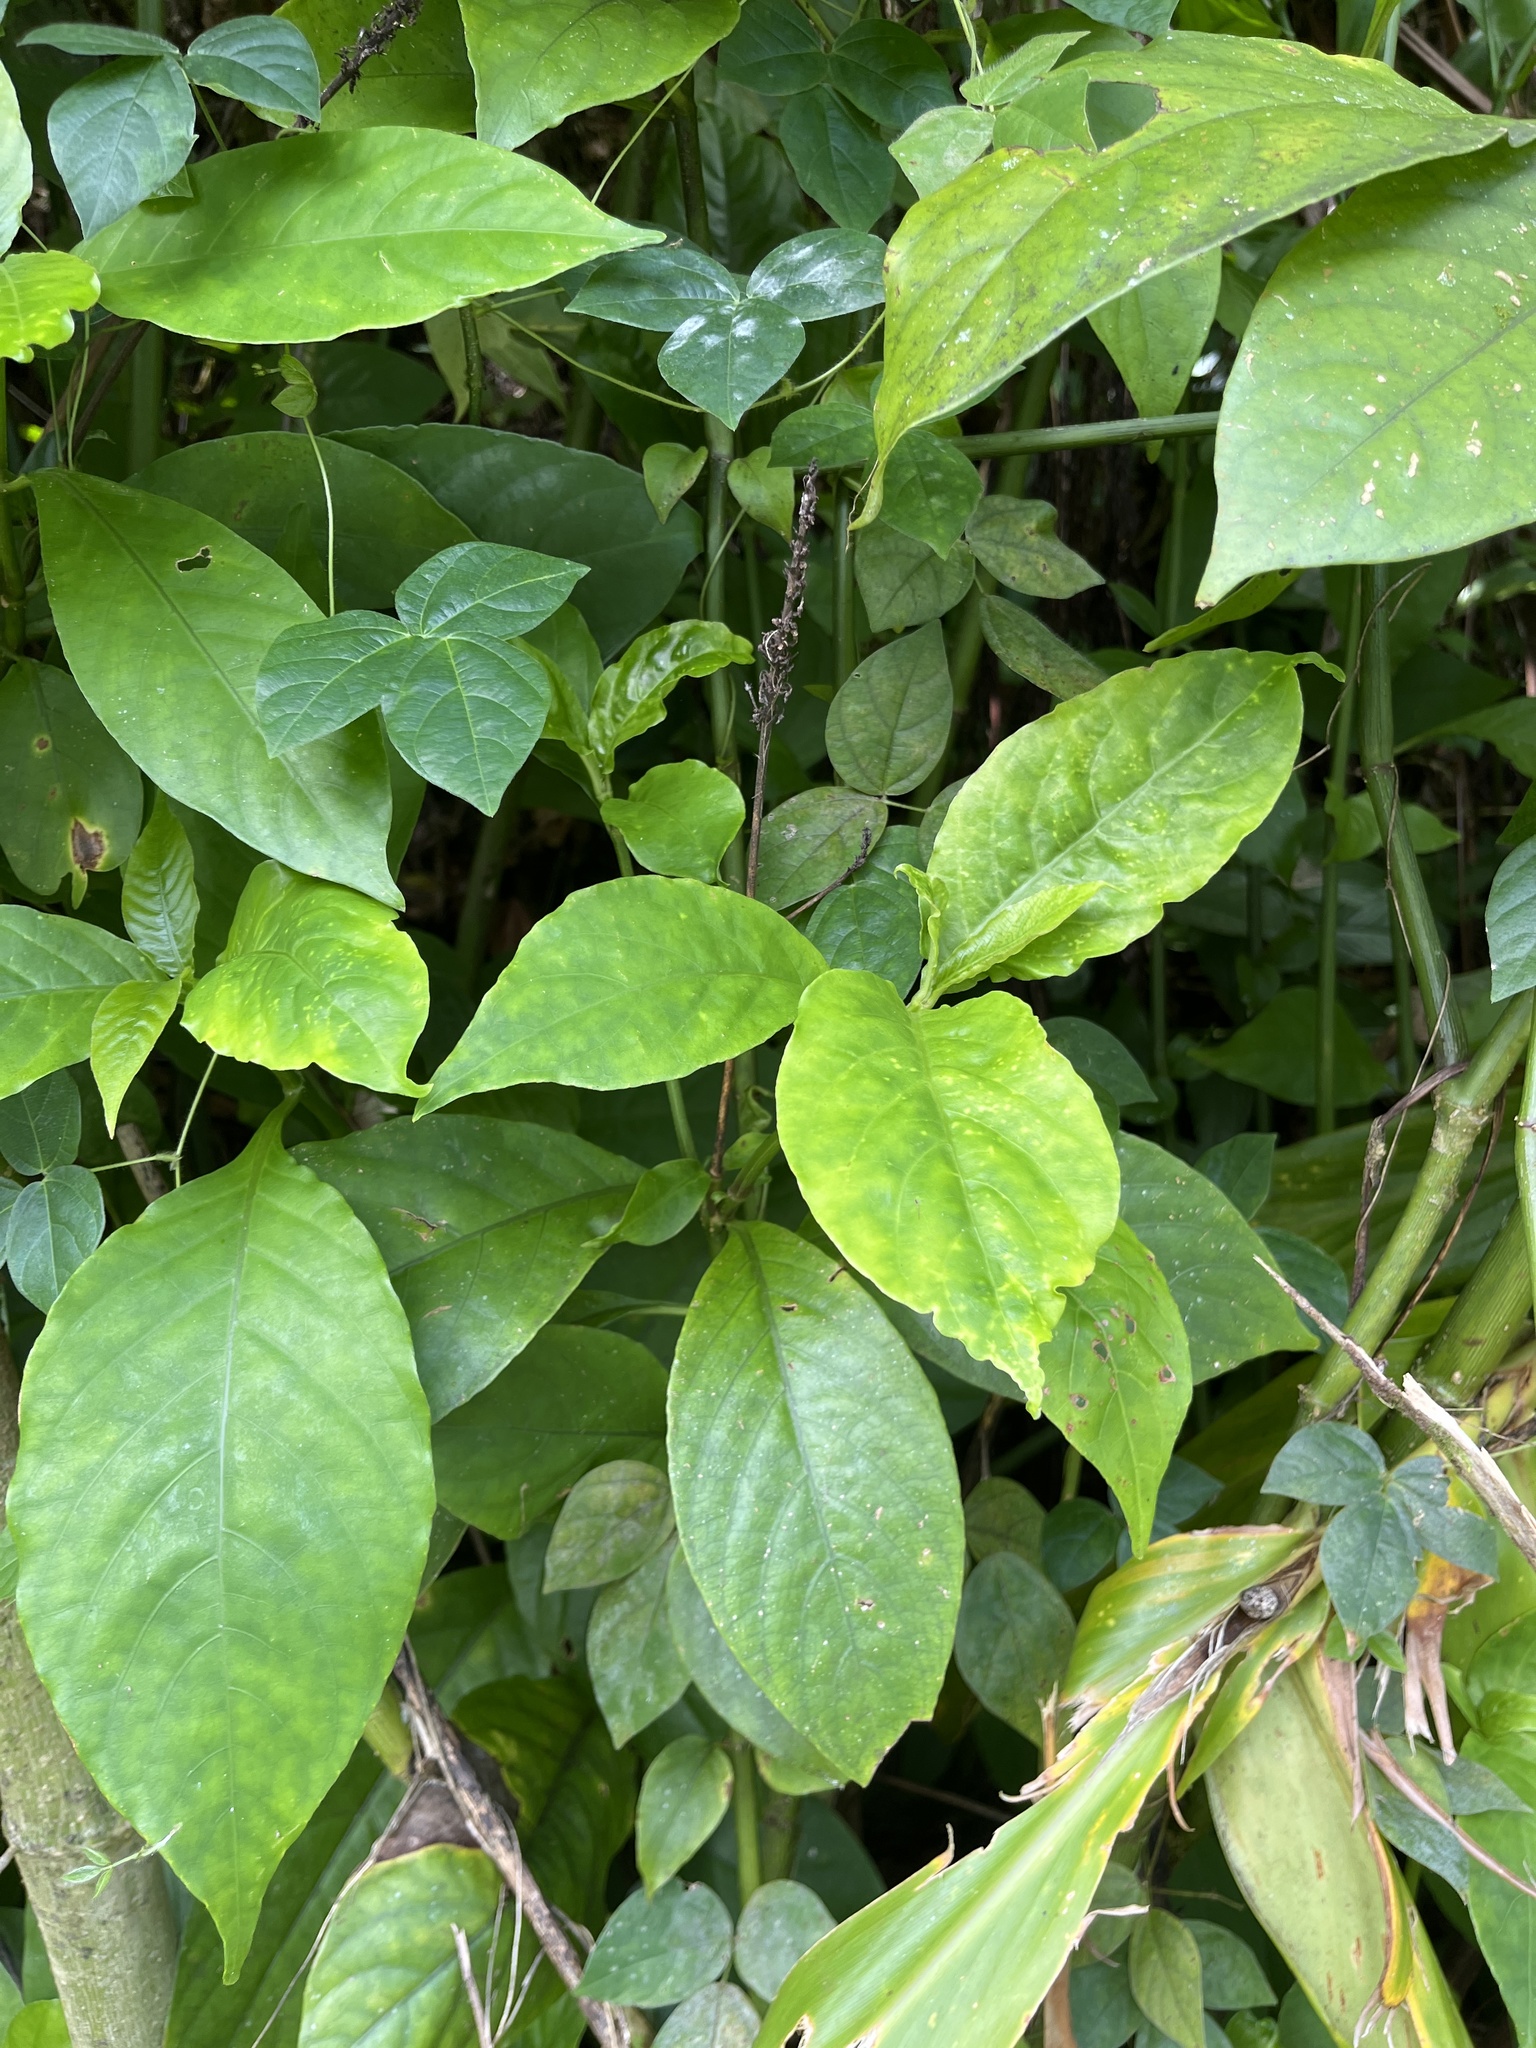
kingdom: Plantae
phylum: Tracheophyta
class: Magnoliopsida
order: Lamiales
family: Acanthaceae
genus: Odontonema
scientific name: Odontonema cuspidatum
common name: Mottled toothedthread
